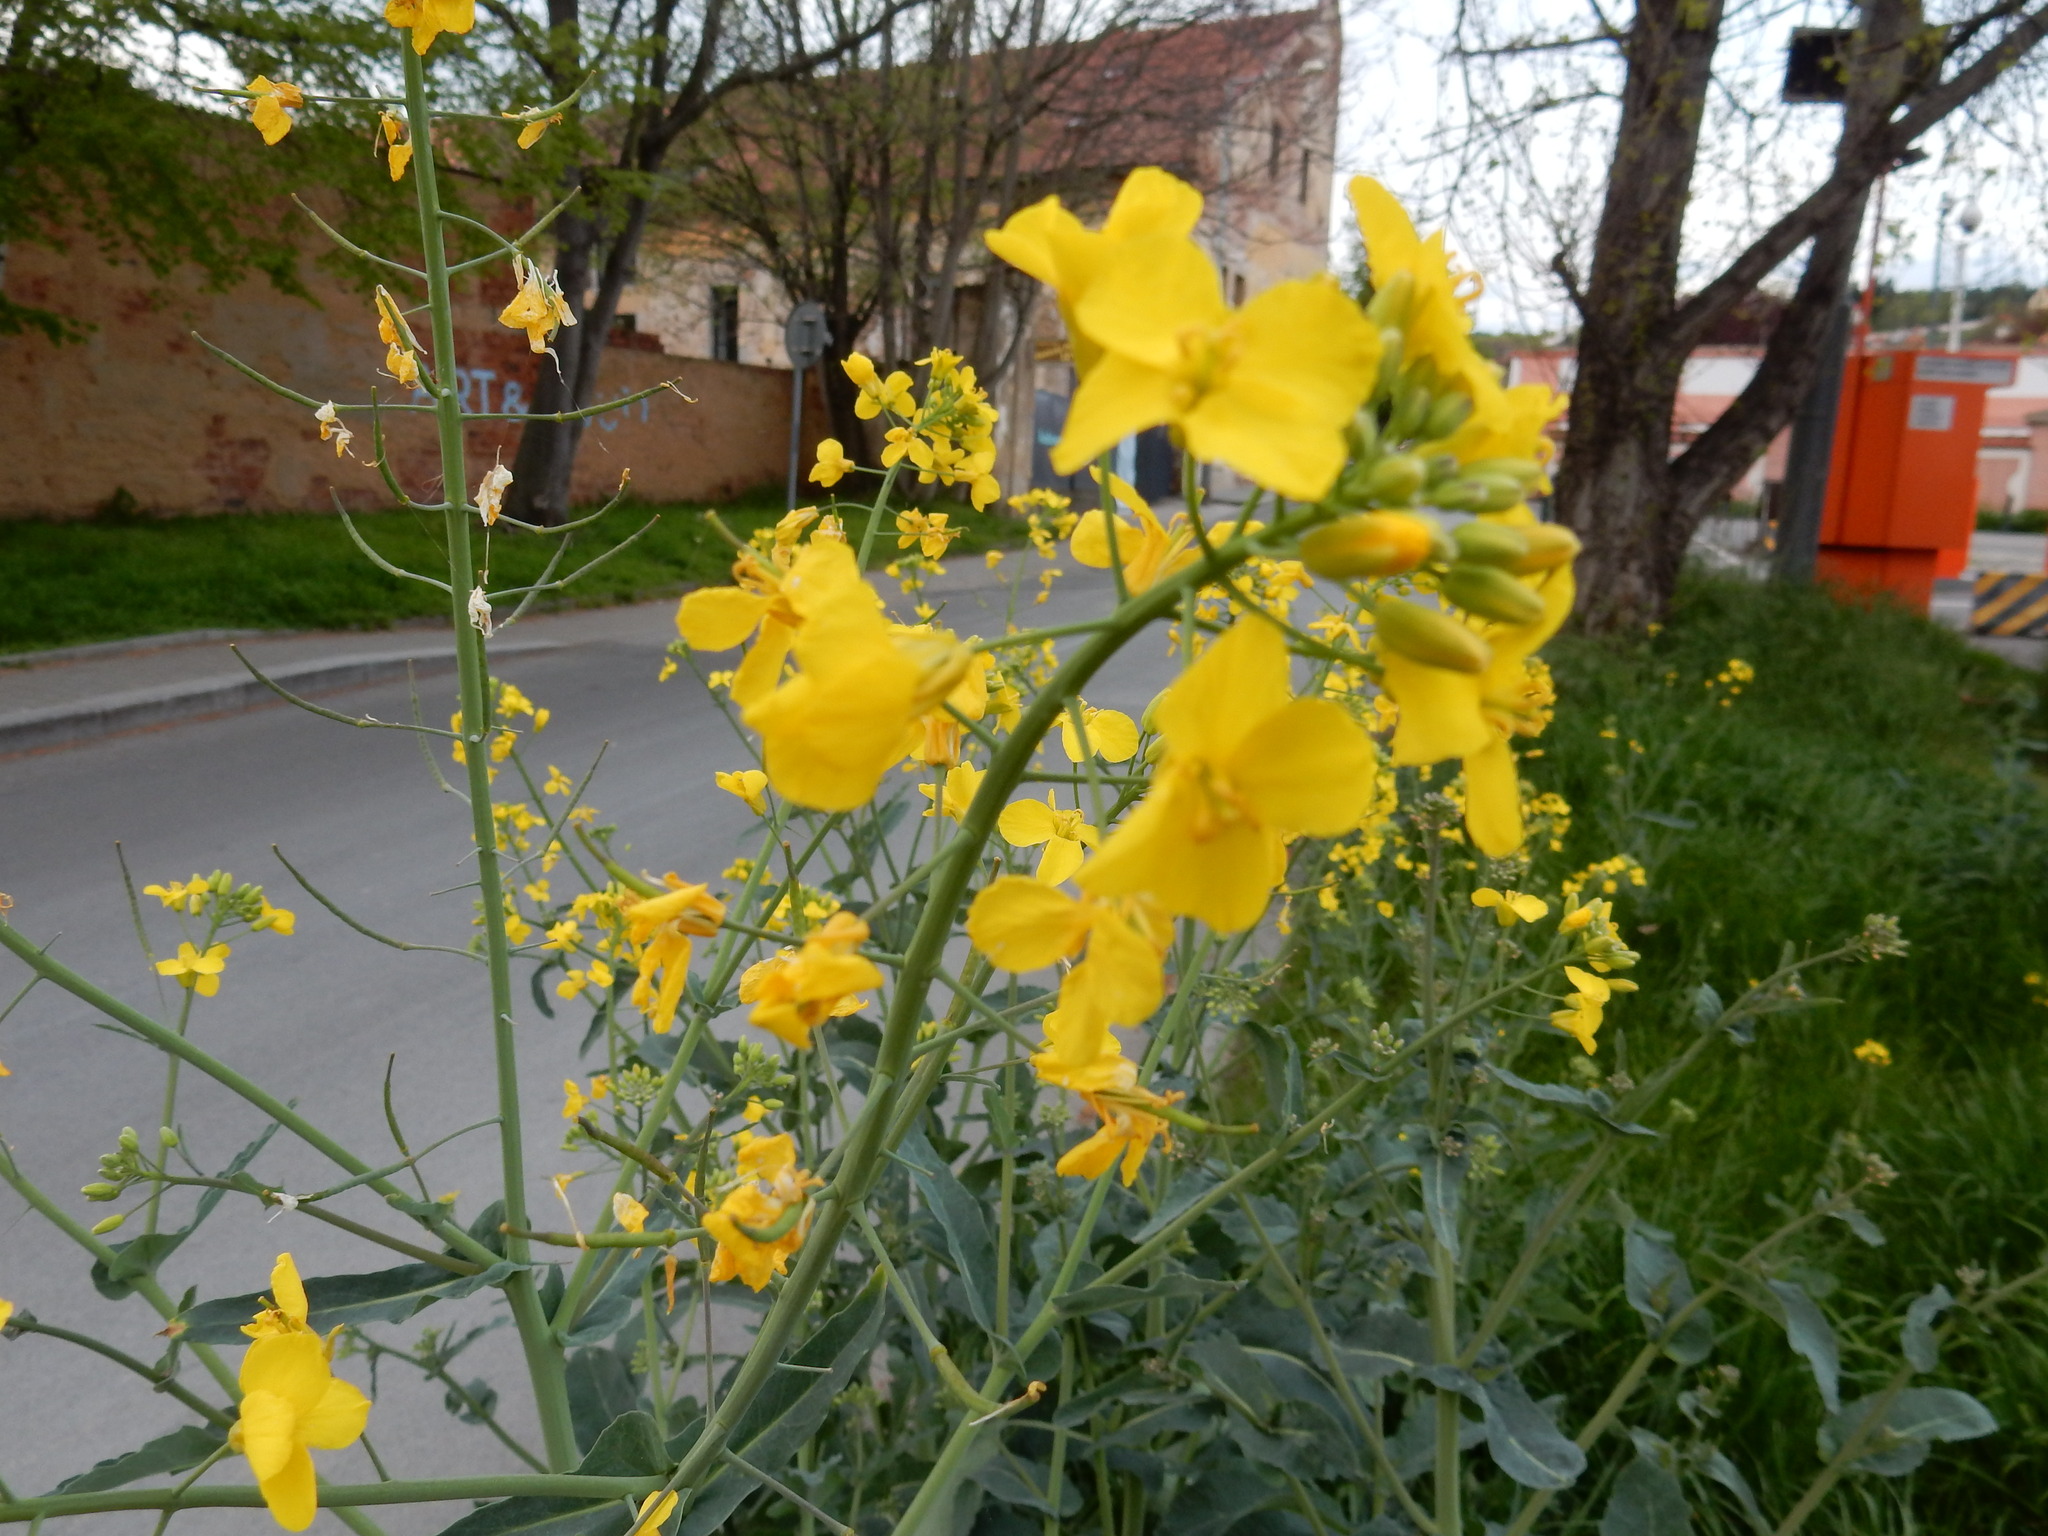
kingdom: Plantae
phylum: Tracheophyta
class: Magnoliopsida
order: Brassicales
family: Brassicaceae
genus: Brassica
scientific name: Brassica napus
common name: Rape
